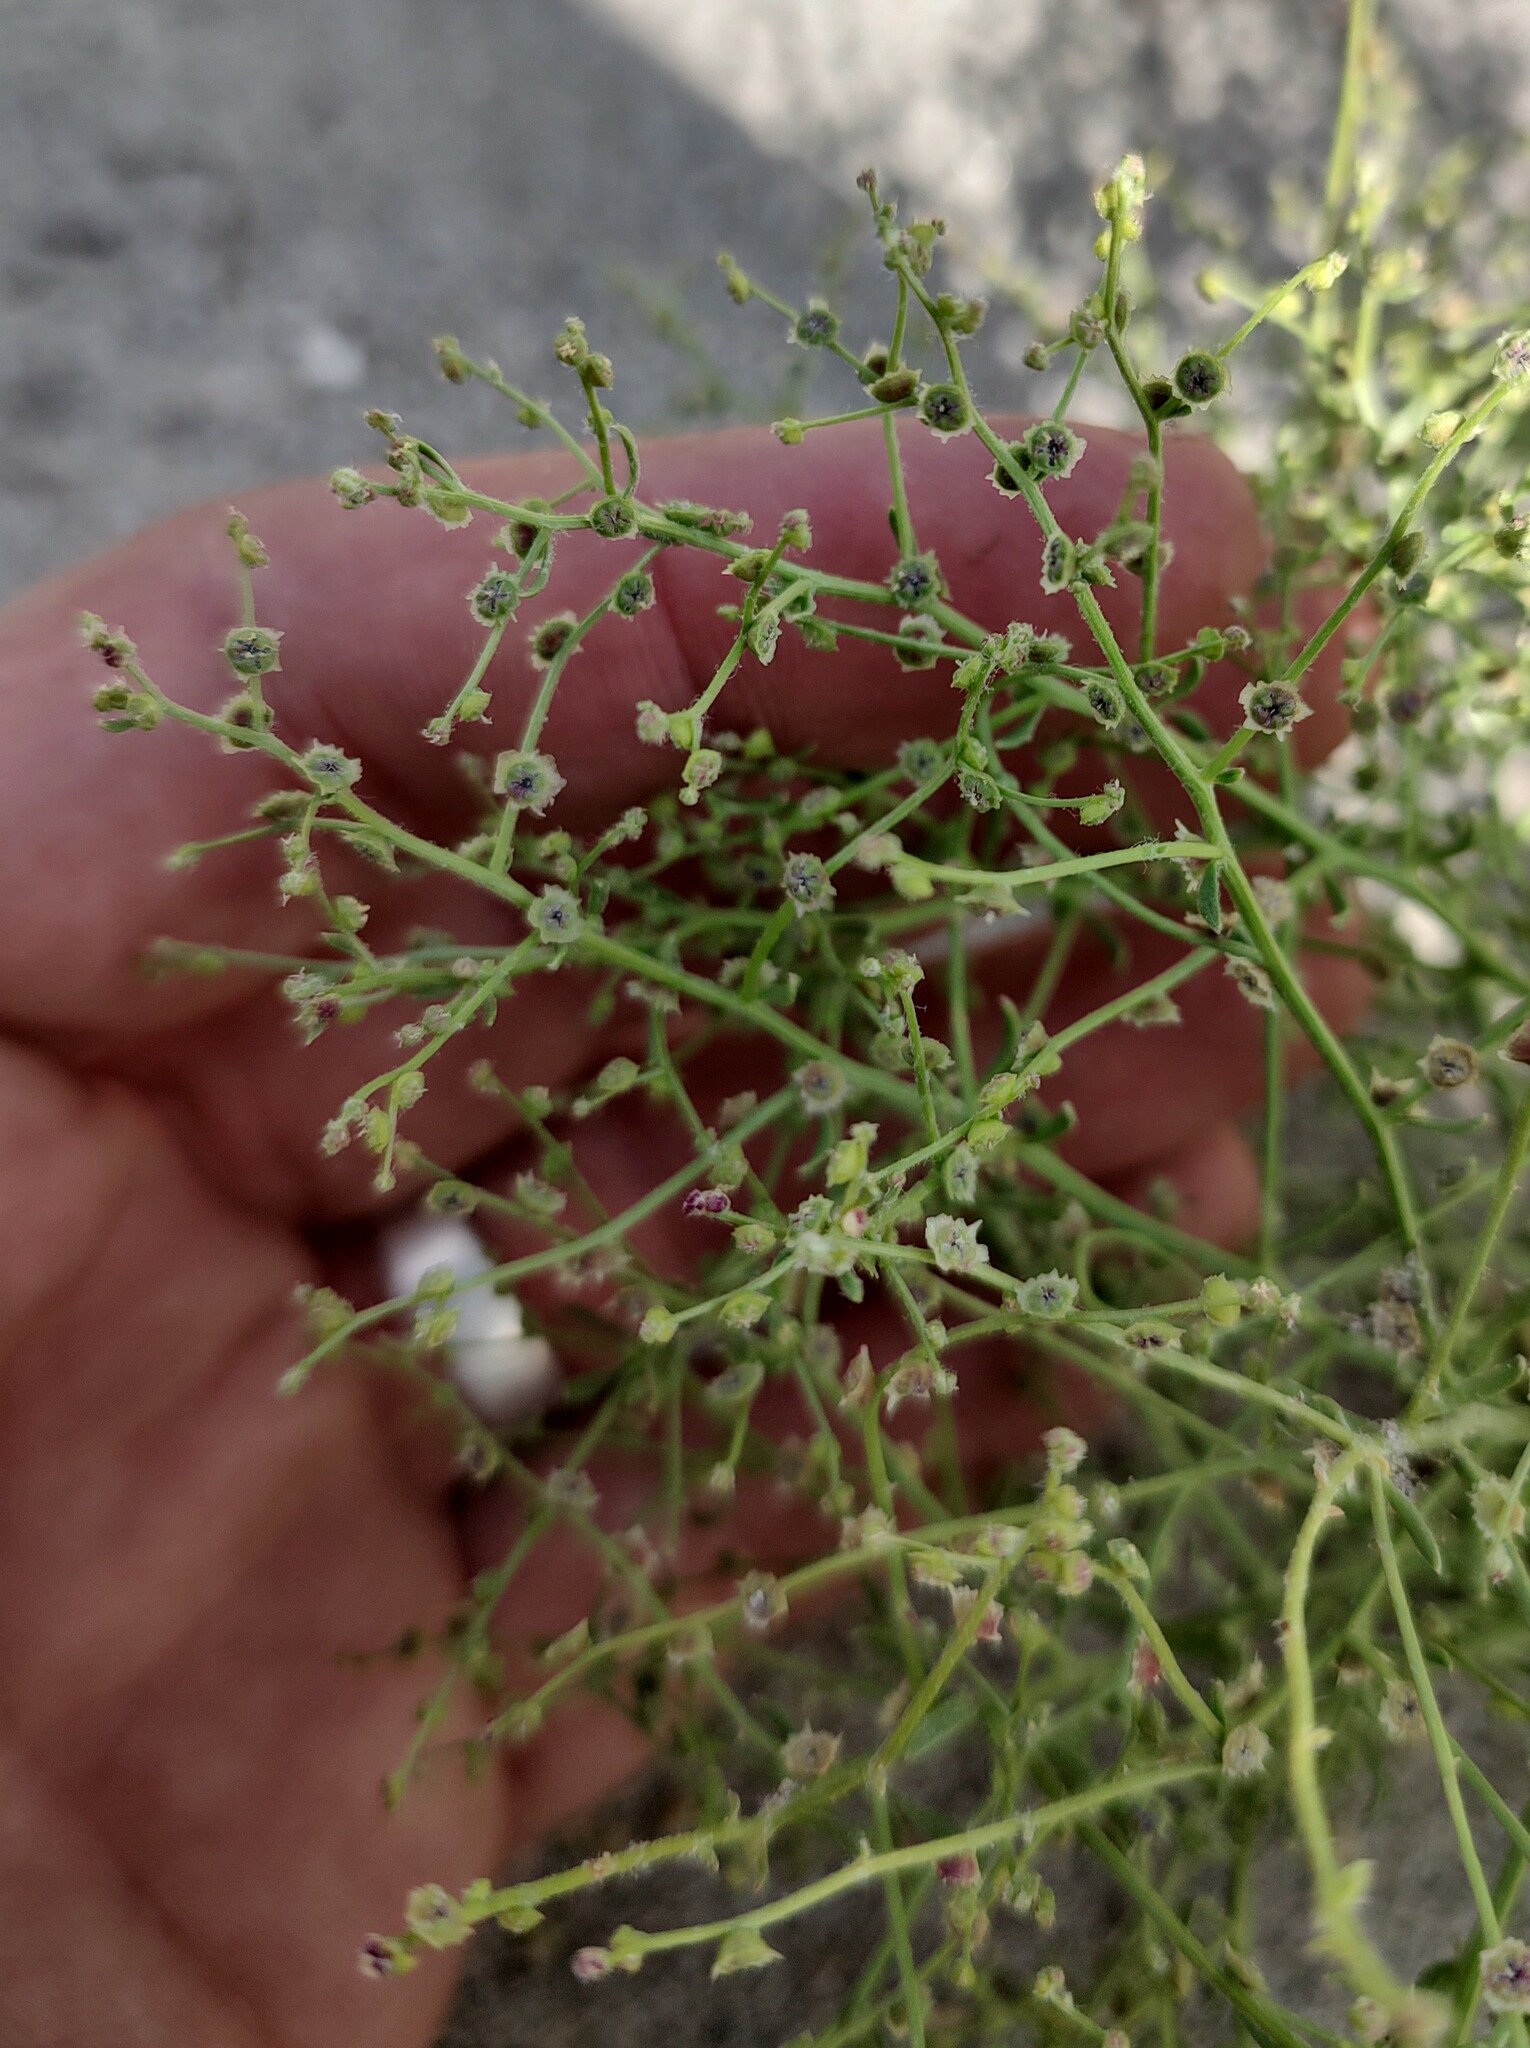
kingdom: Plantae
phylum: Tracheophyta
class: Magnoliopsida
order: Caryophyllales
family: Amaranthaceae
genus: Dysphania
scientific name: Dysphania atriplicifolia
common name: Plains tumbleweed
